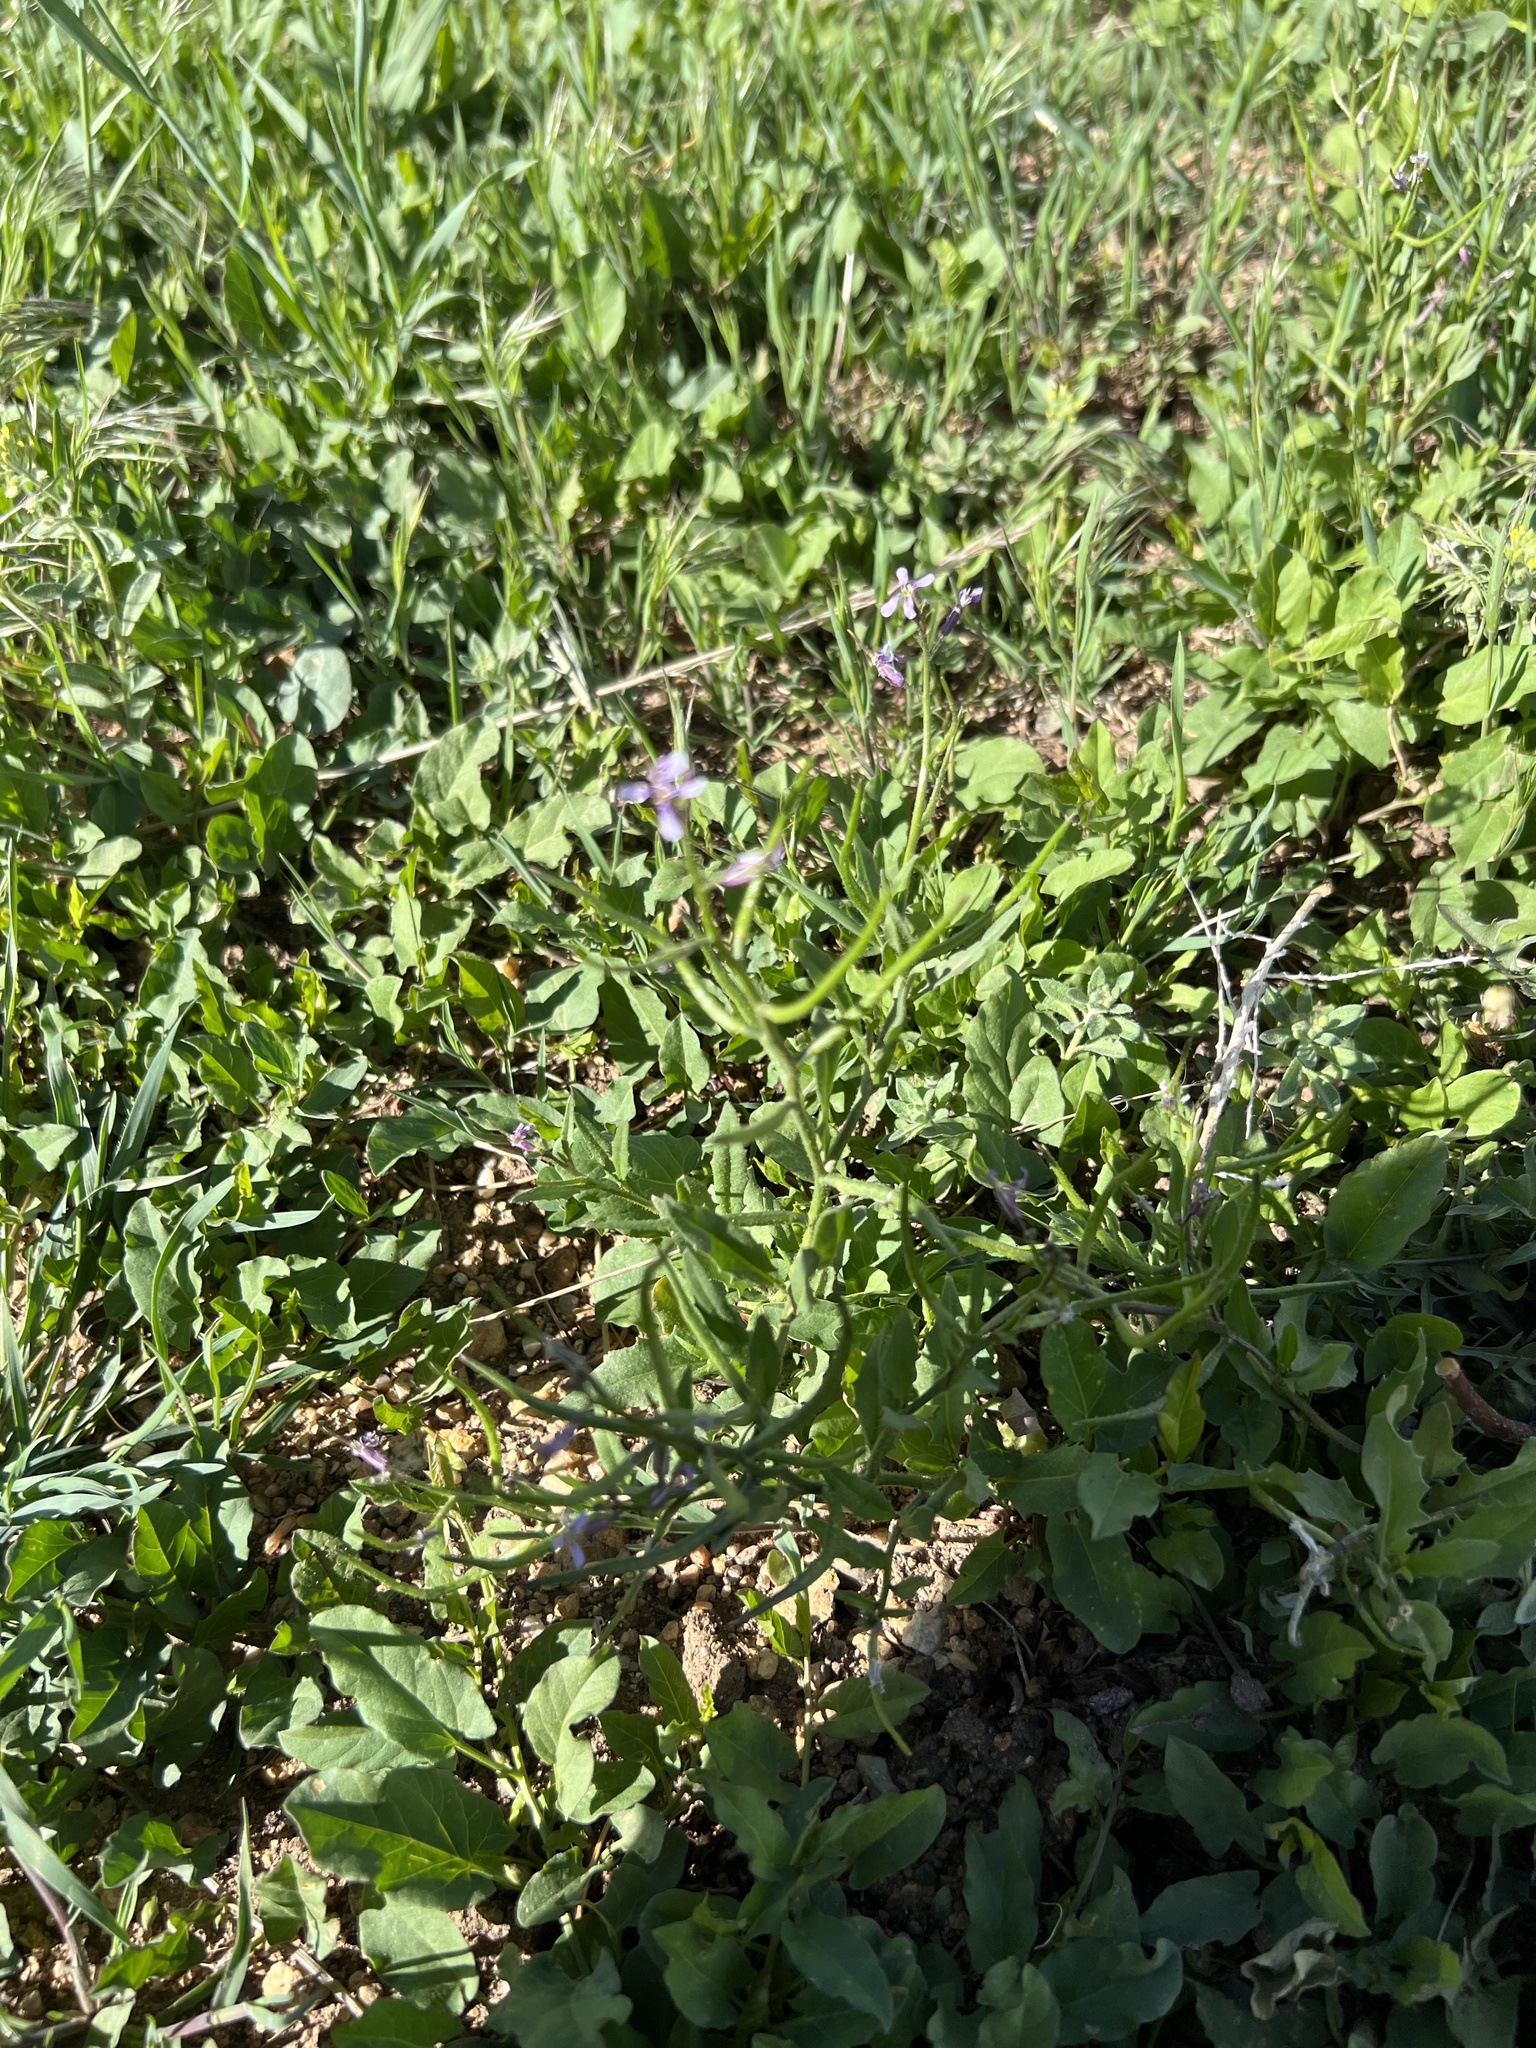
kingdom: Plantae
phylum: Tracheophyta
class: Magnoliopsida
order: Brassicales
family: Brassicaceae
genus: Chorispora
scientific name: Chorispora tenella
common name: Crossflower
